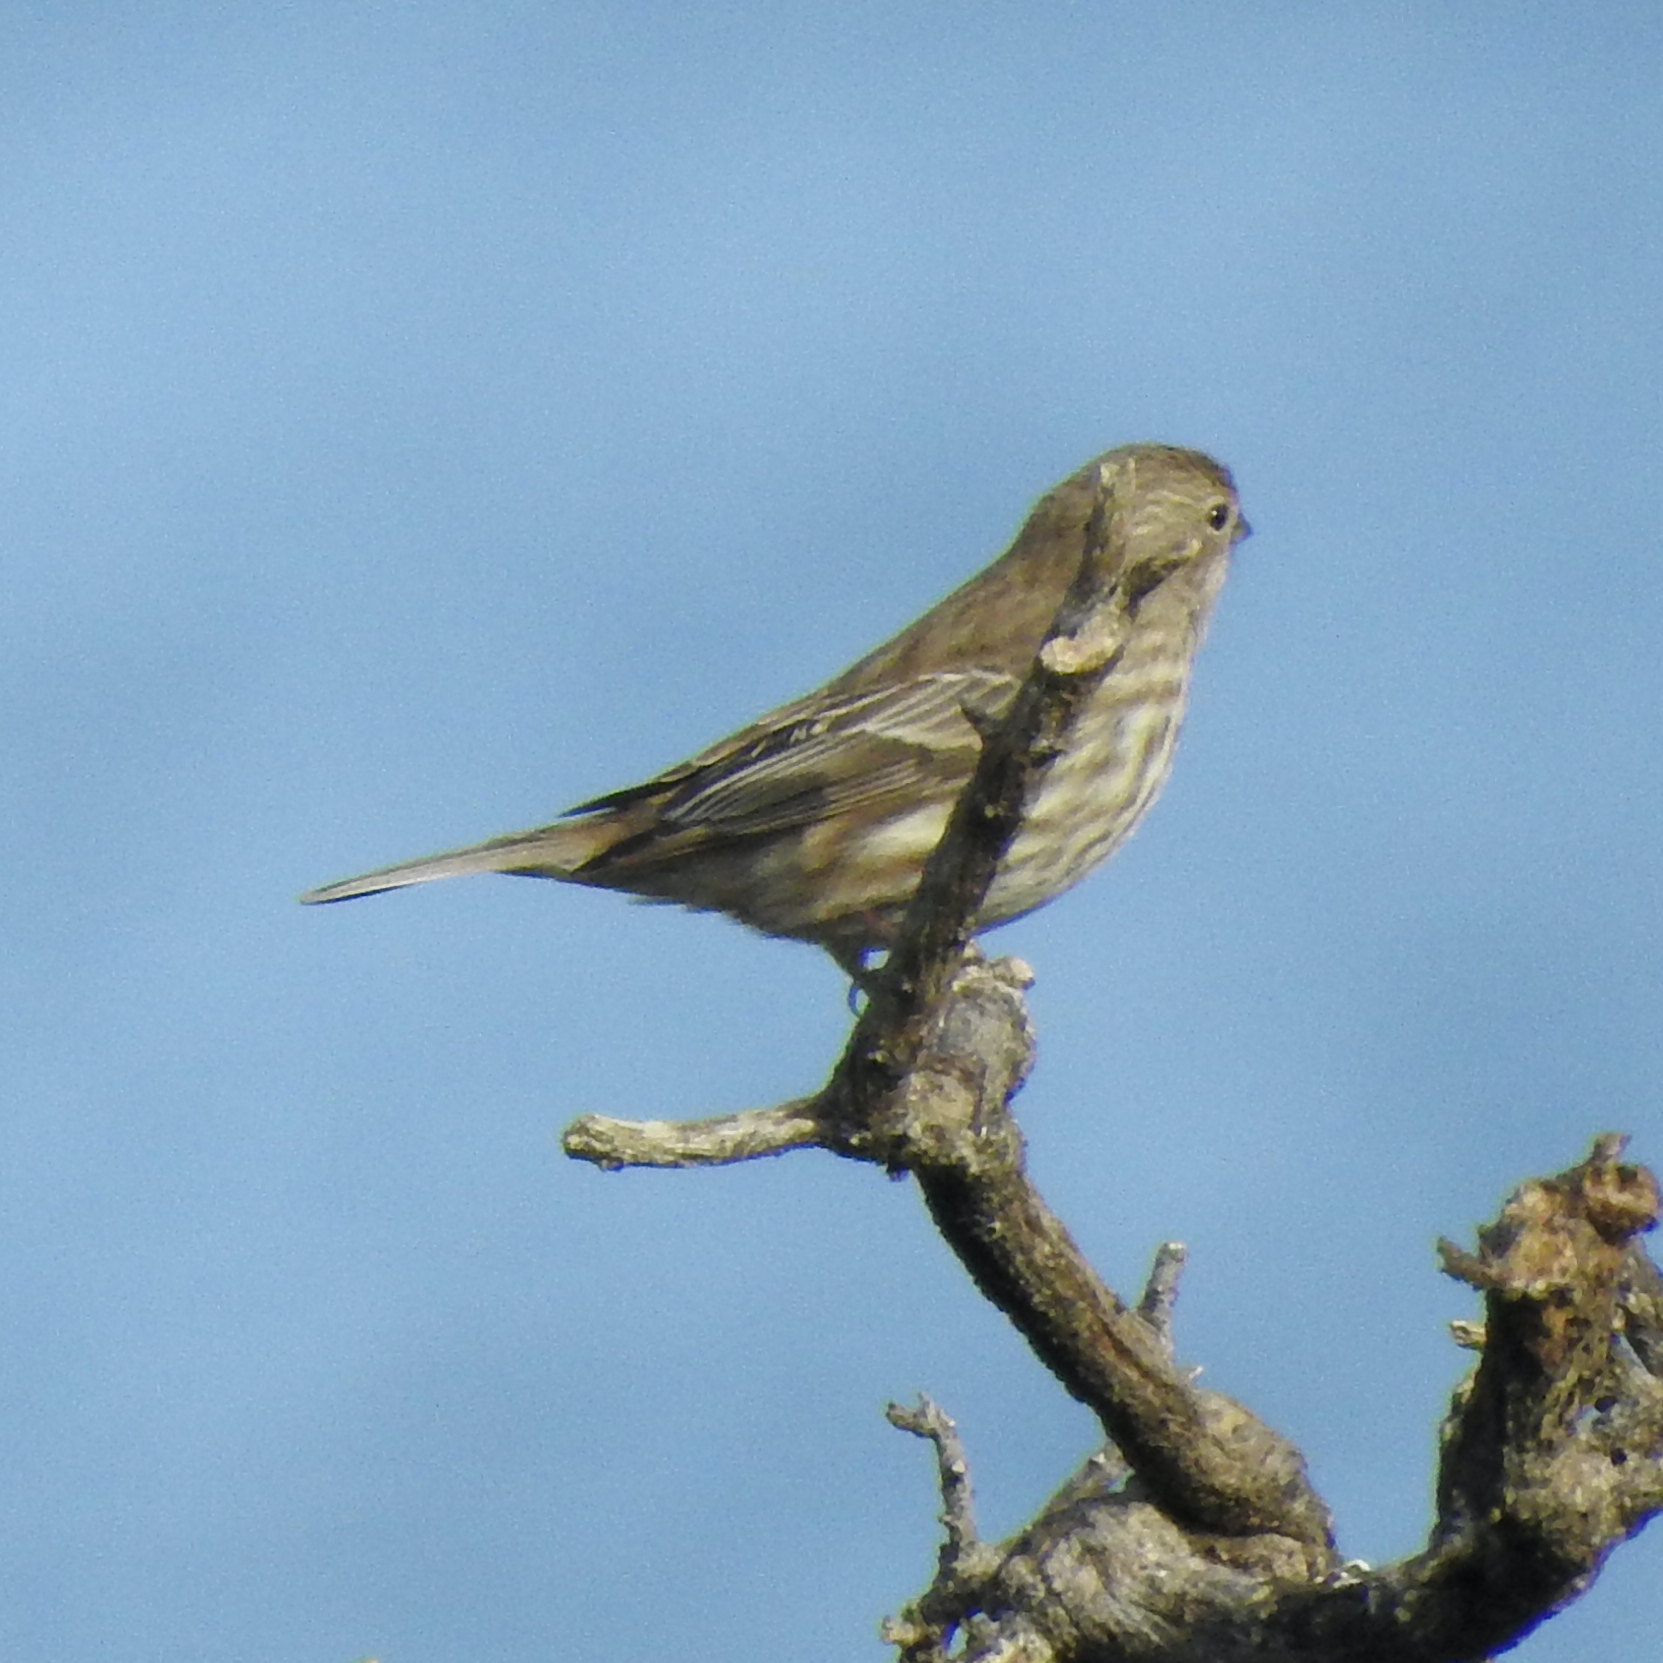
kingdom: Animalia
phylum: Chordata
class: Aves
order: Passeriformes
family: Fringillidae
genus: Haemorhous
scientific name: Haemorhous mexicanus
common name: House finch
